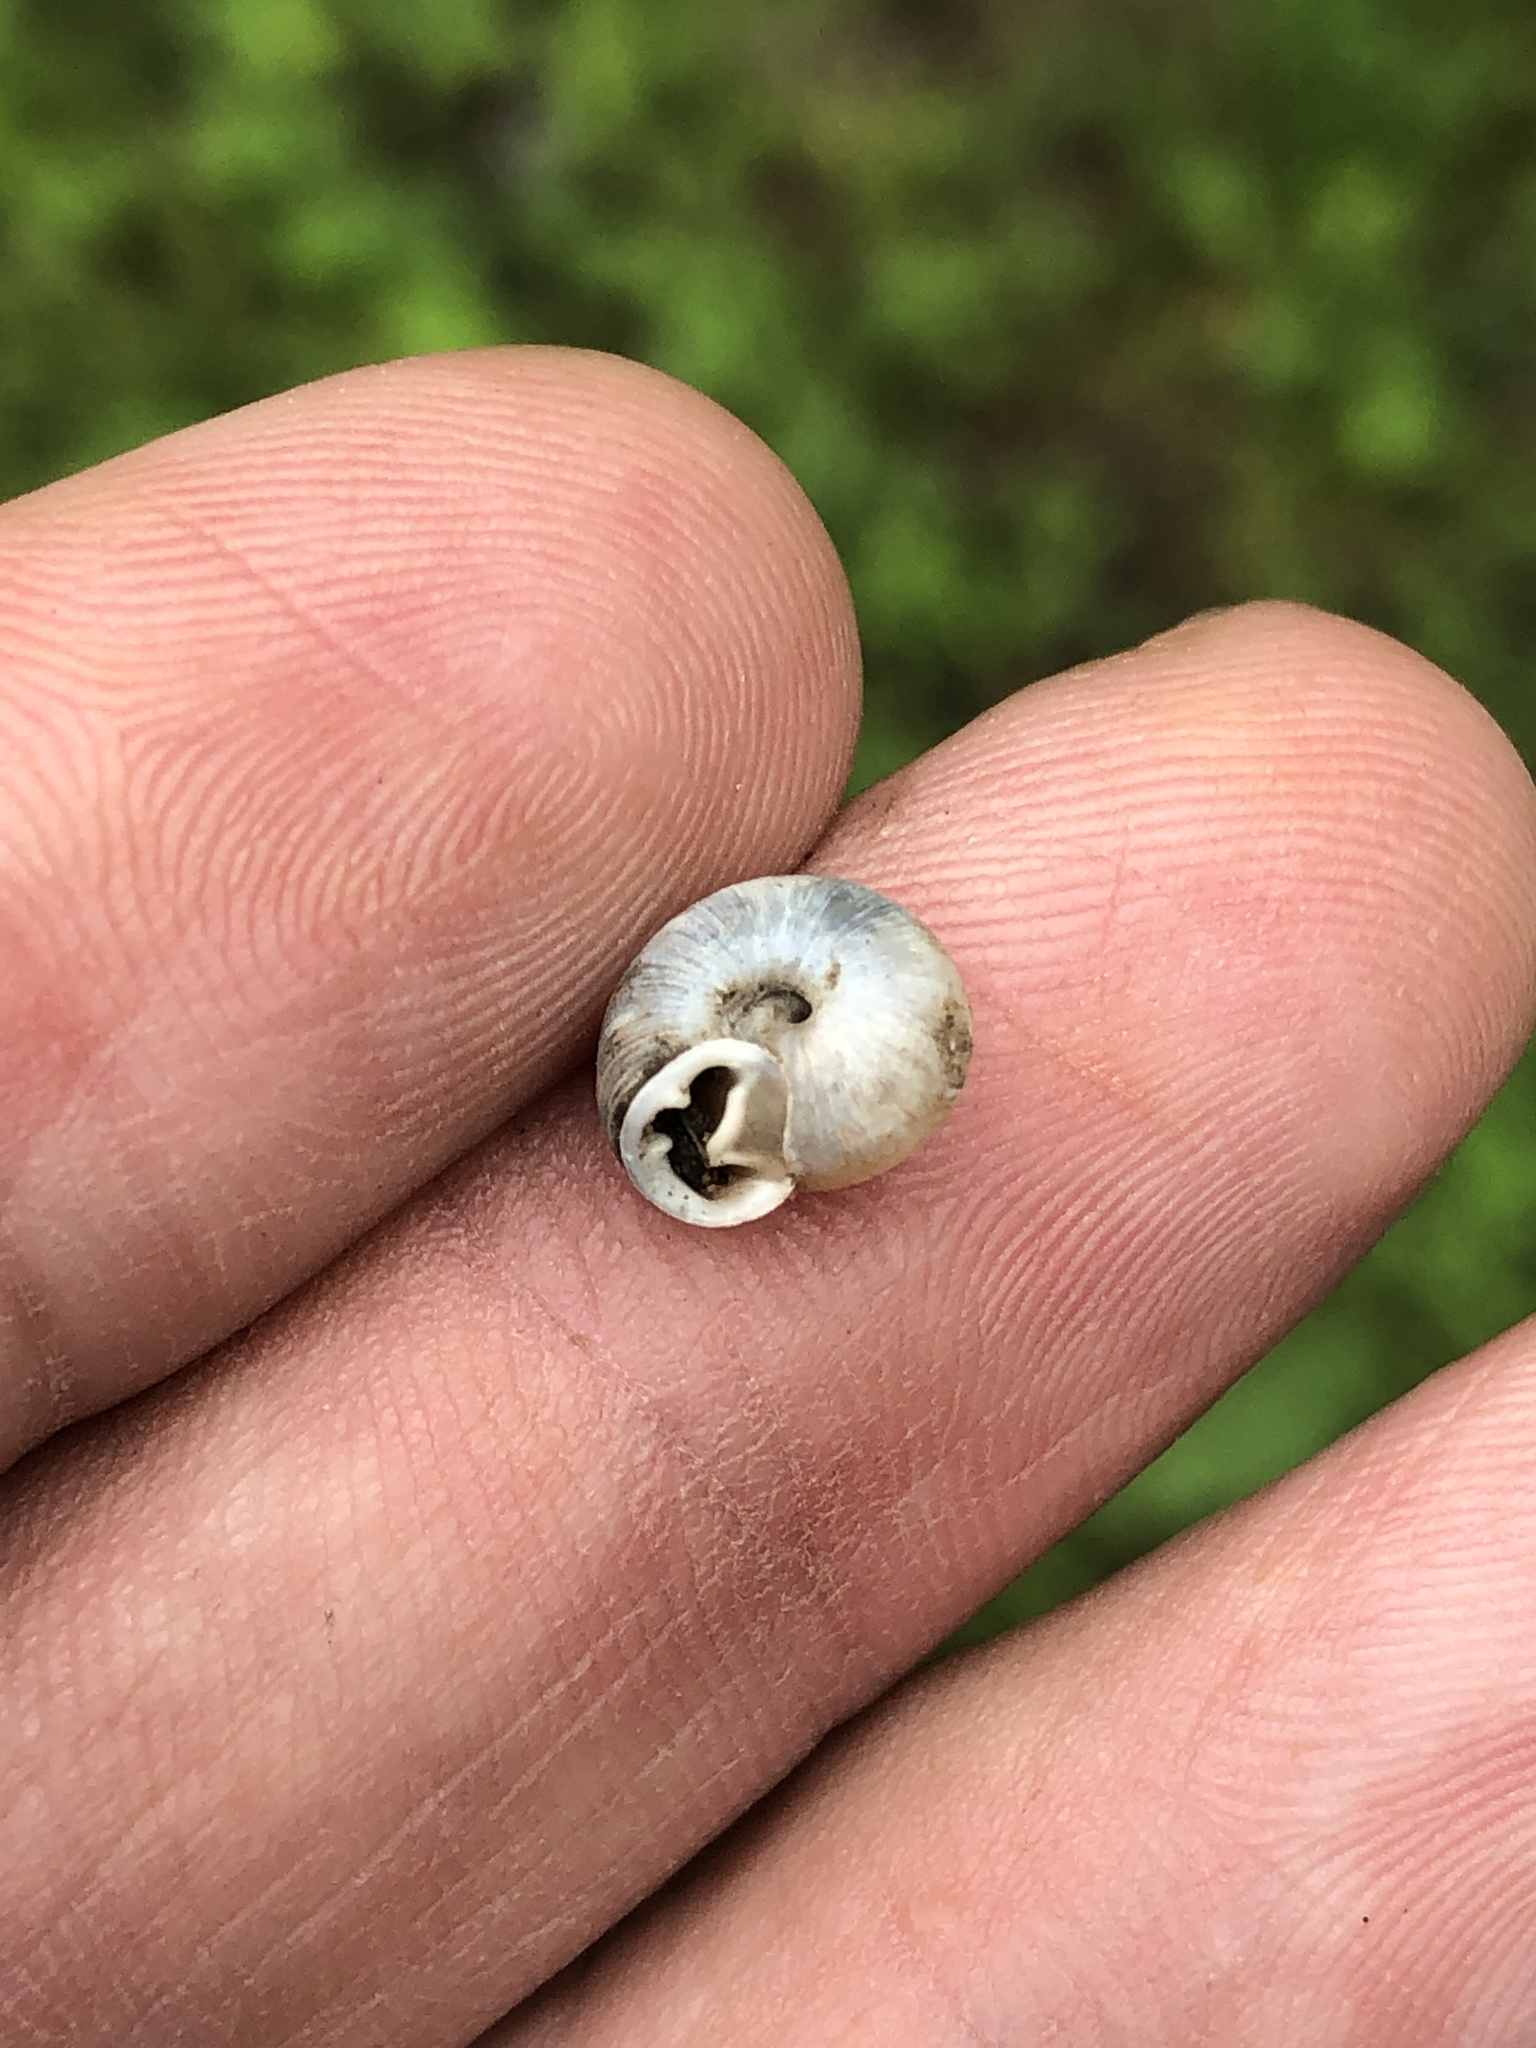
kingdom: Animalia
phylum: Mollusca
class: Gastropoda
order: Stylommatophora
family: Polygyridae
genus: Linisa
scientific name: Linisa texasiana
